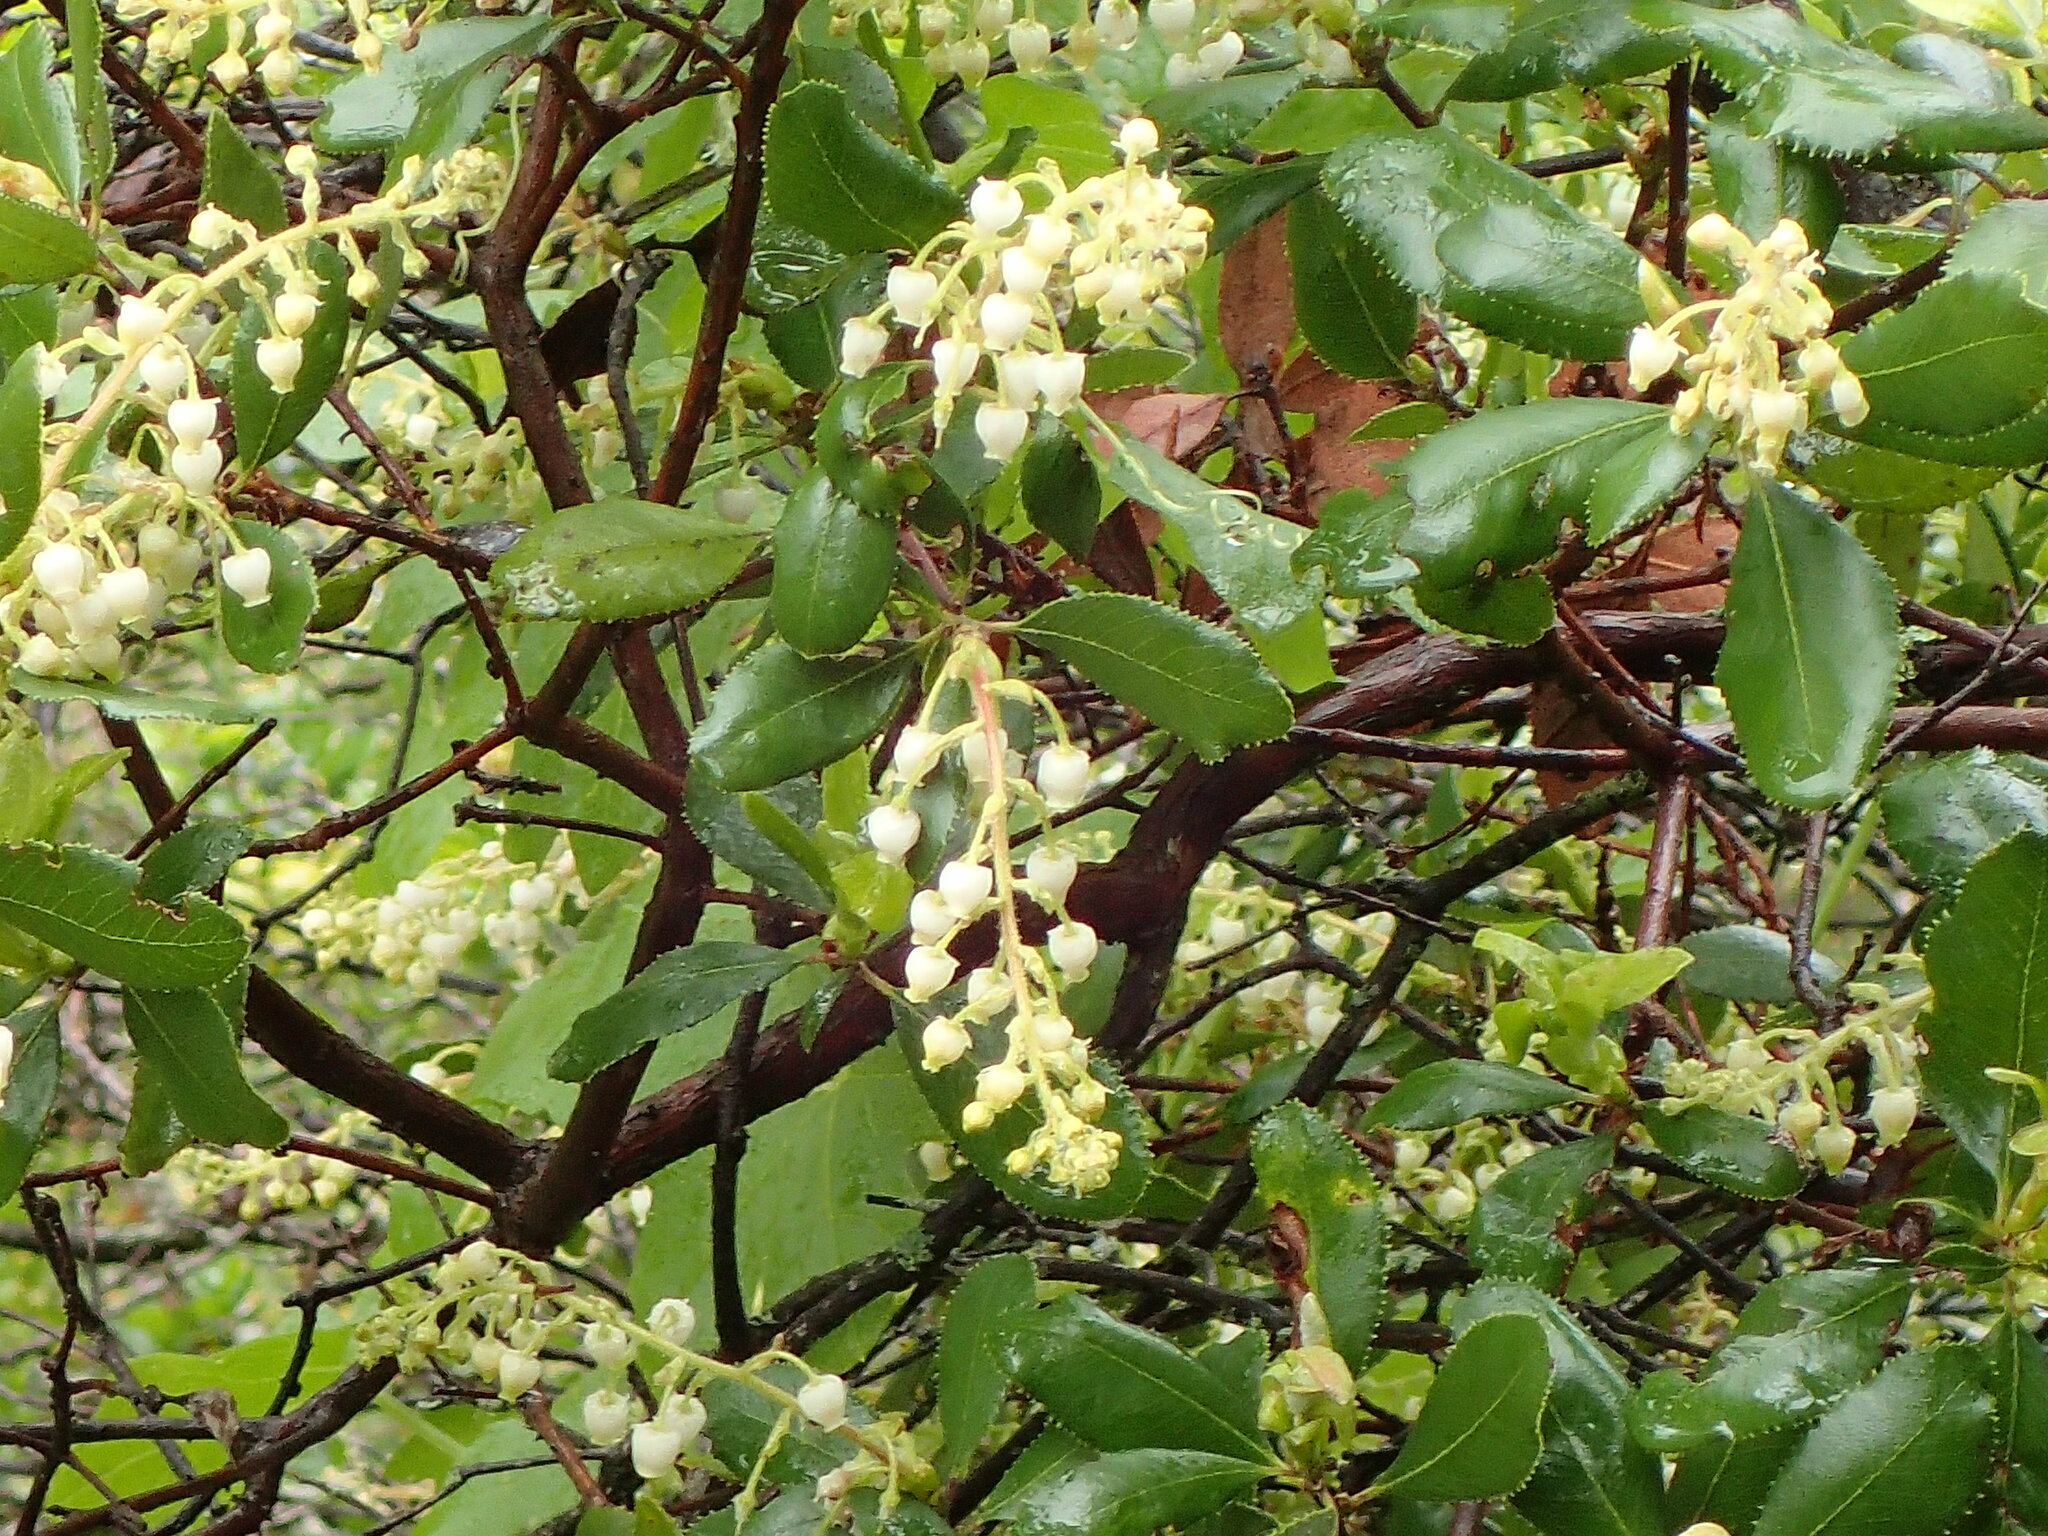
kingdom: Plantae
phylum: Tracheophyta
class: Magnoliopsida
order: Ericales
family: Ericaceae
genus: Comarostaphylis
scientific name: Comarostaphylis diversifolia
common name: Summer-holly
